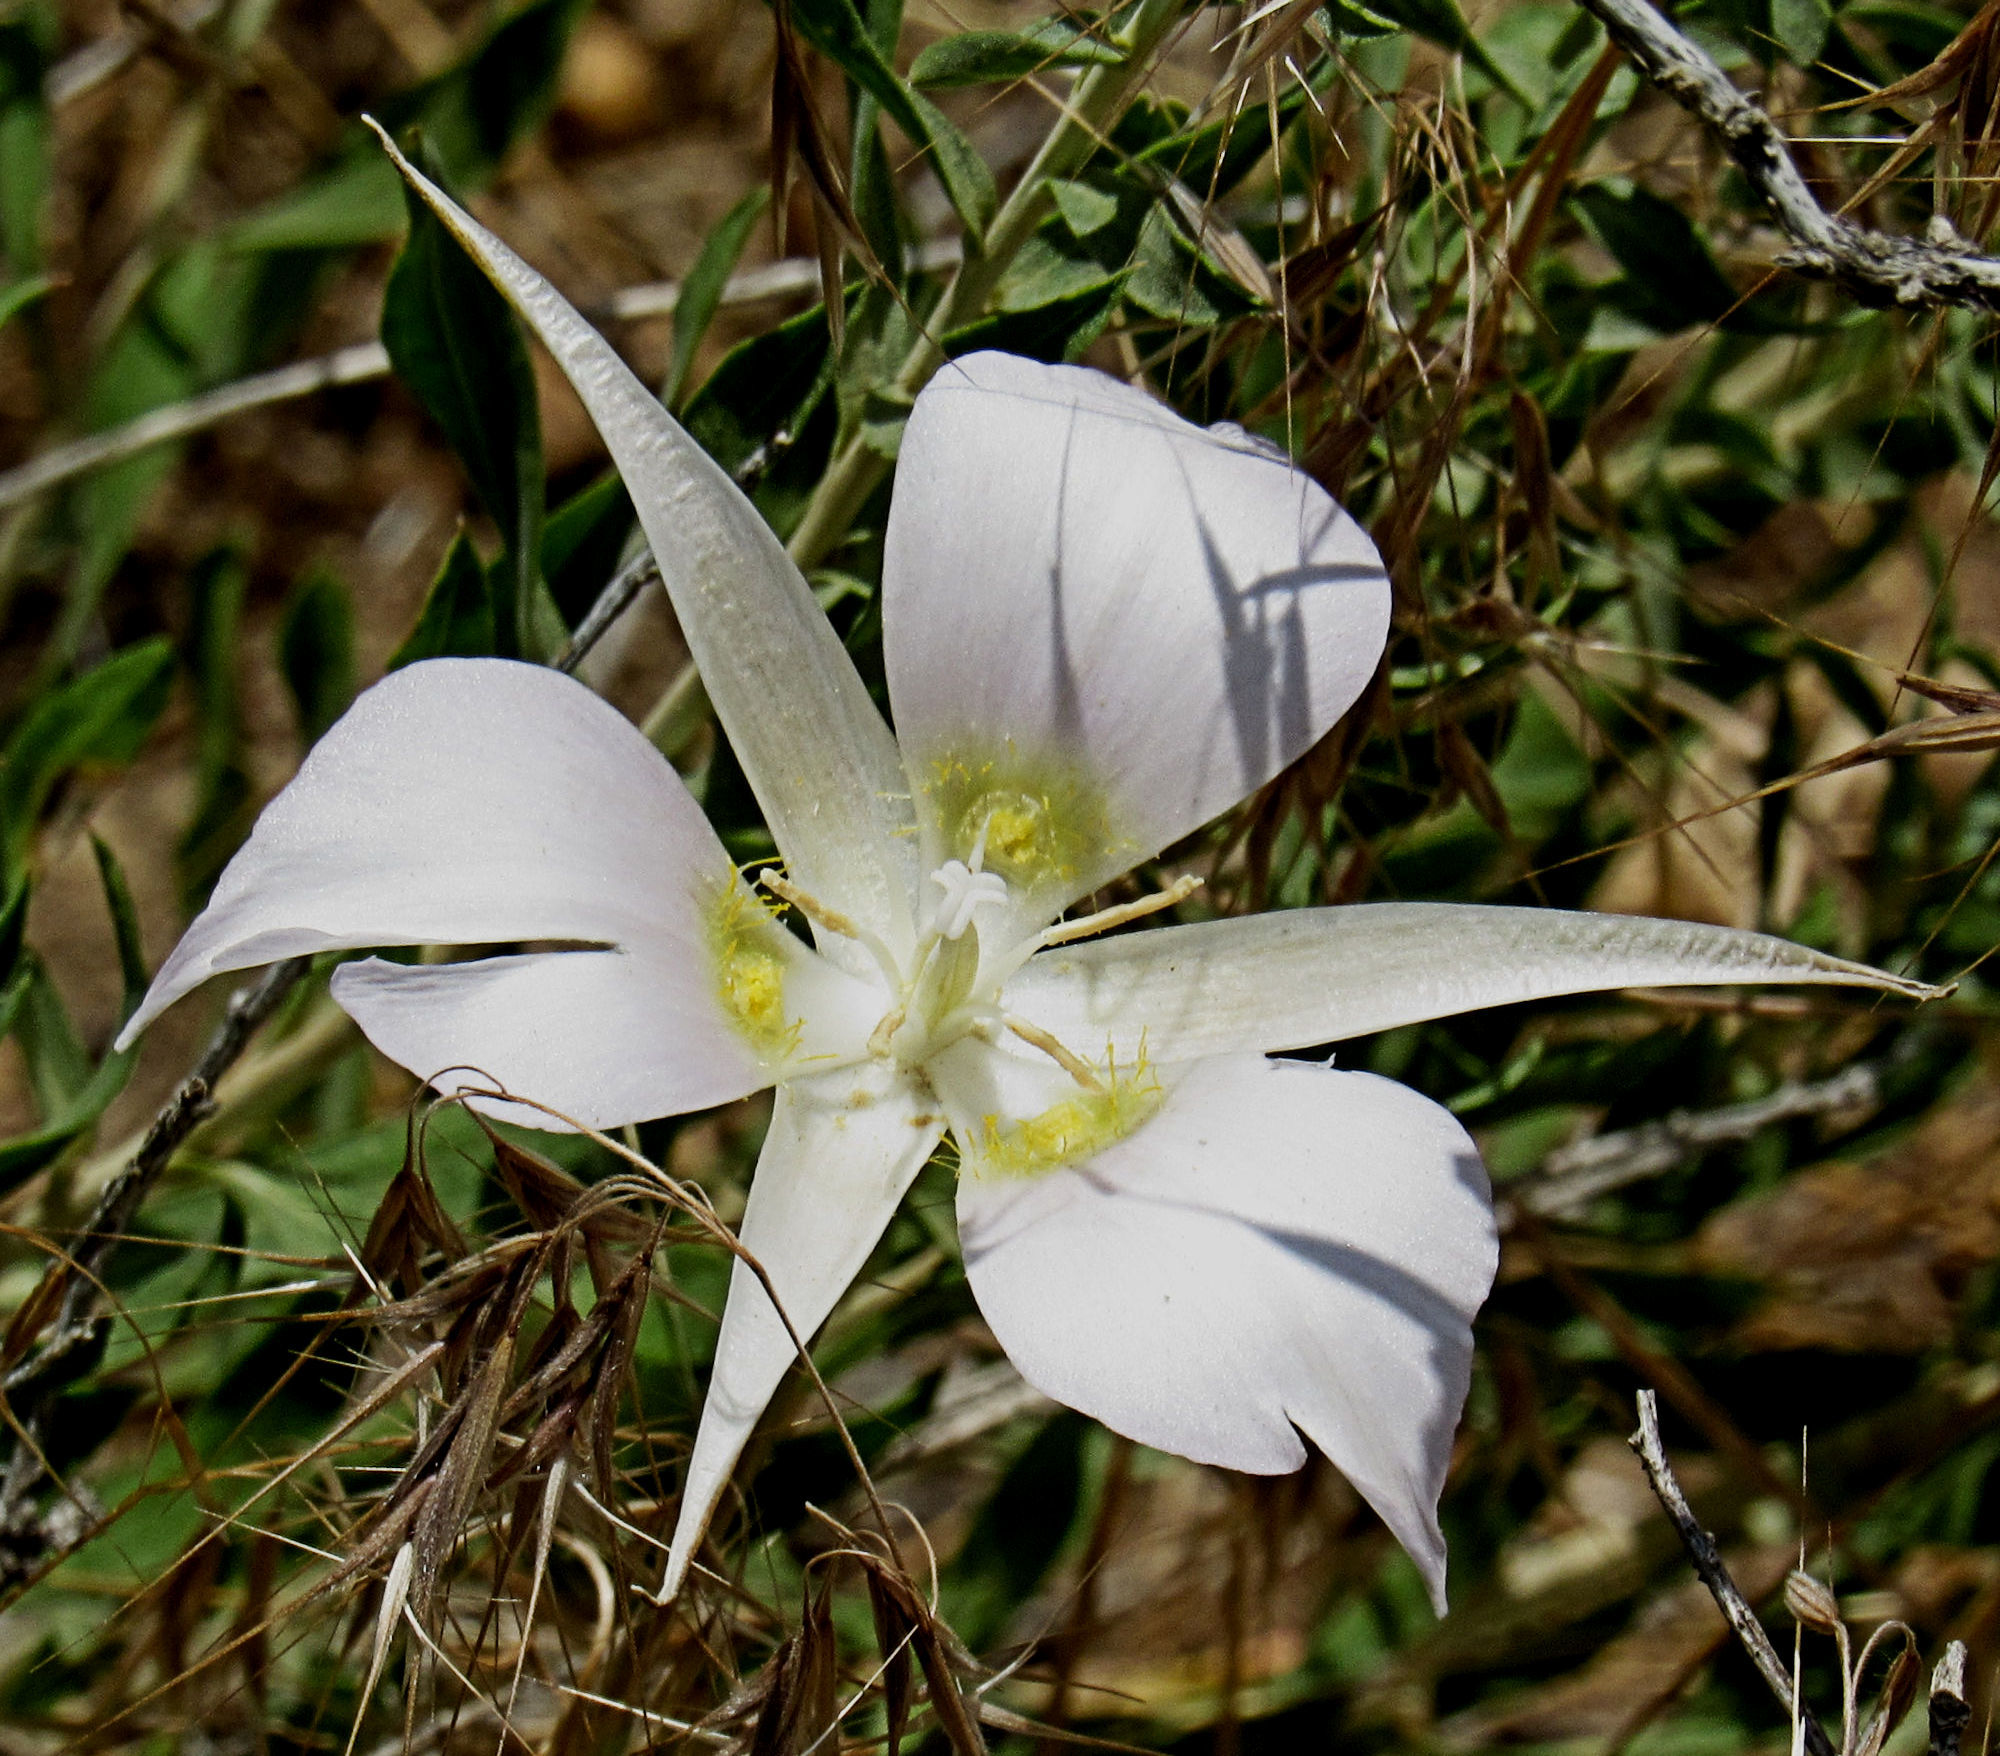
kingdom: Plantae
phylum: Tracheophyta
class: Liliopsida
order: Liliales
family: Liliaceae
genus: Calochortus
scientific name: Calochortus macrocarpus
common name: Green-band mariposa lily
